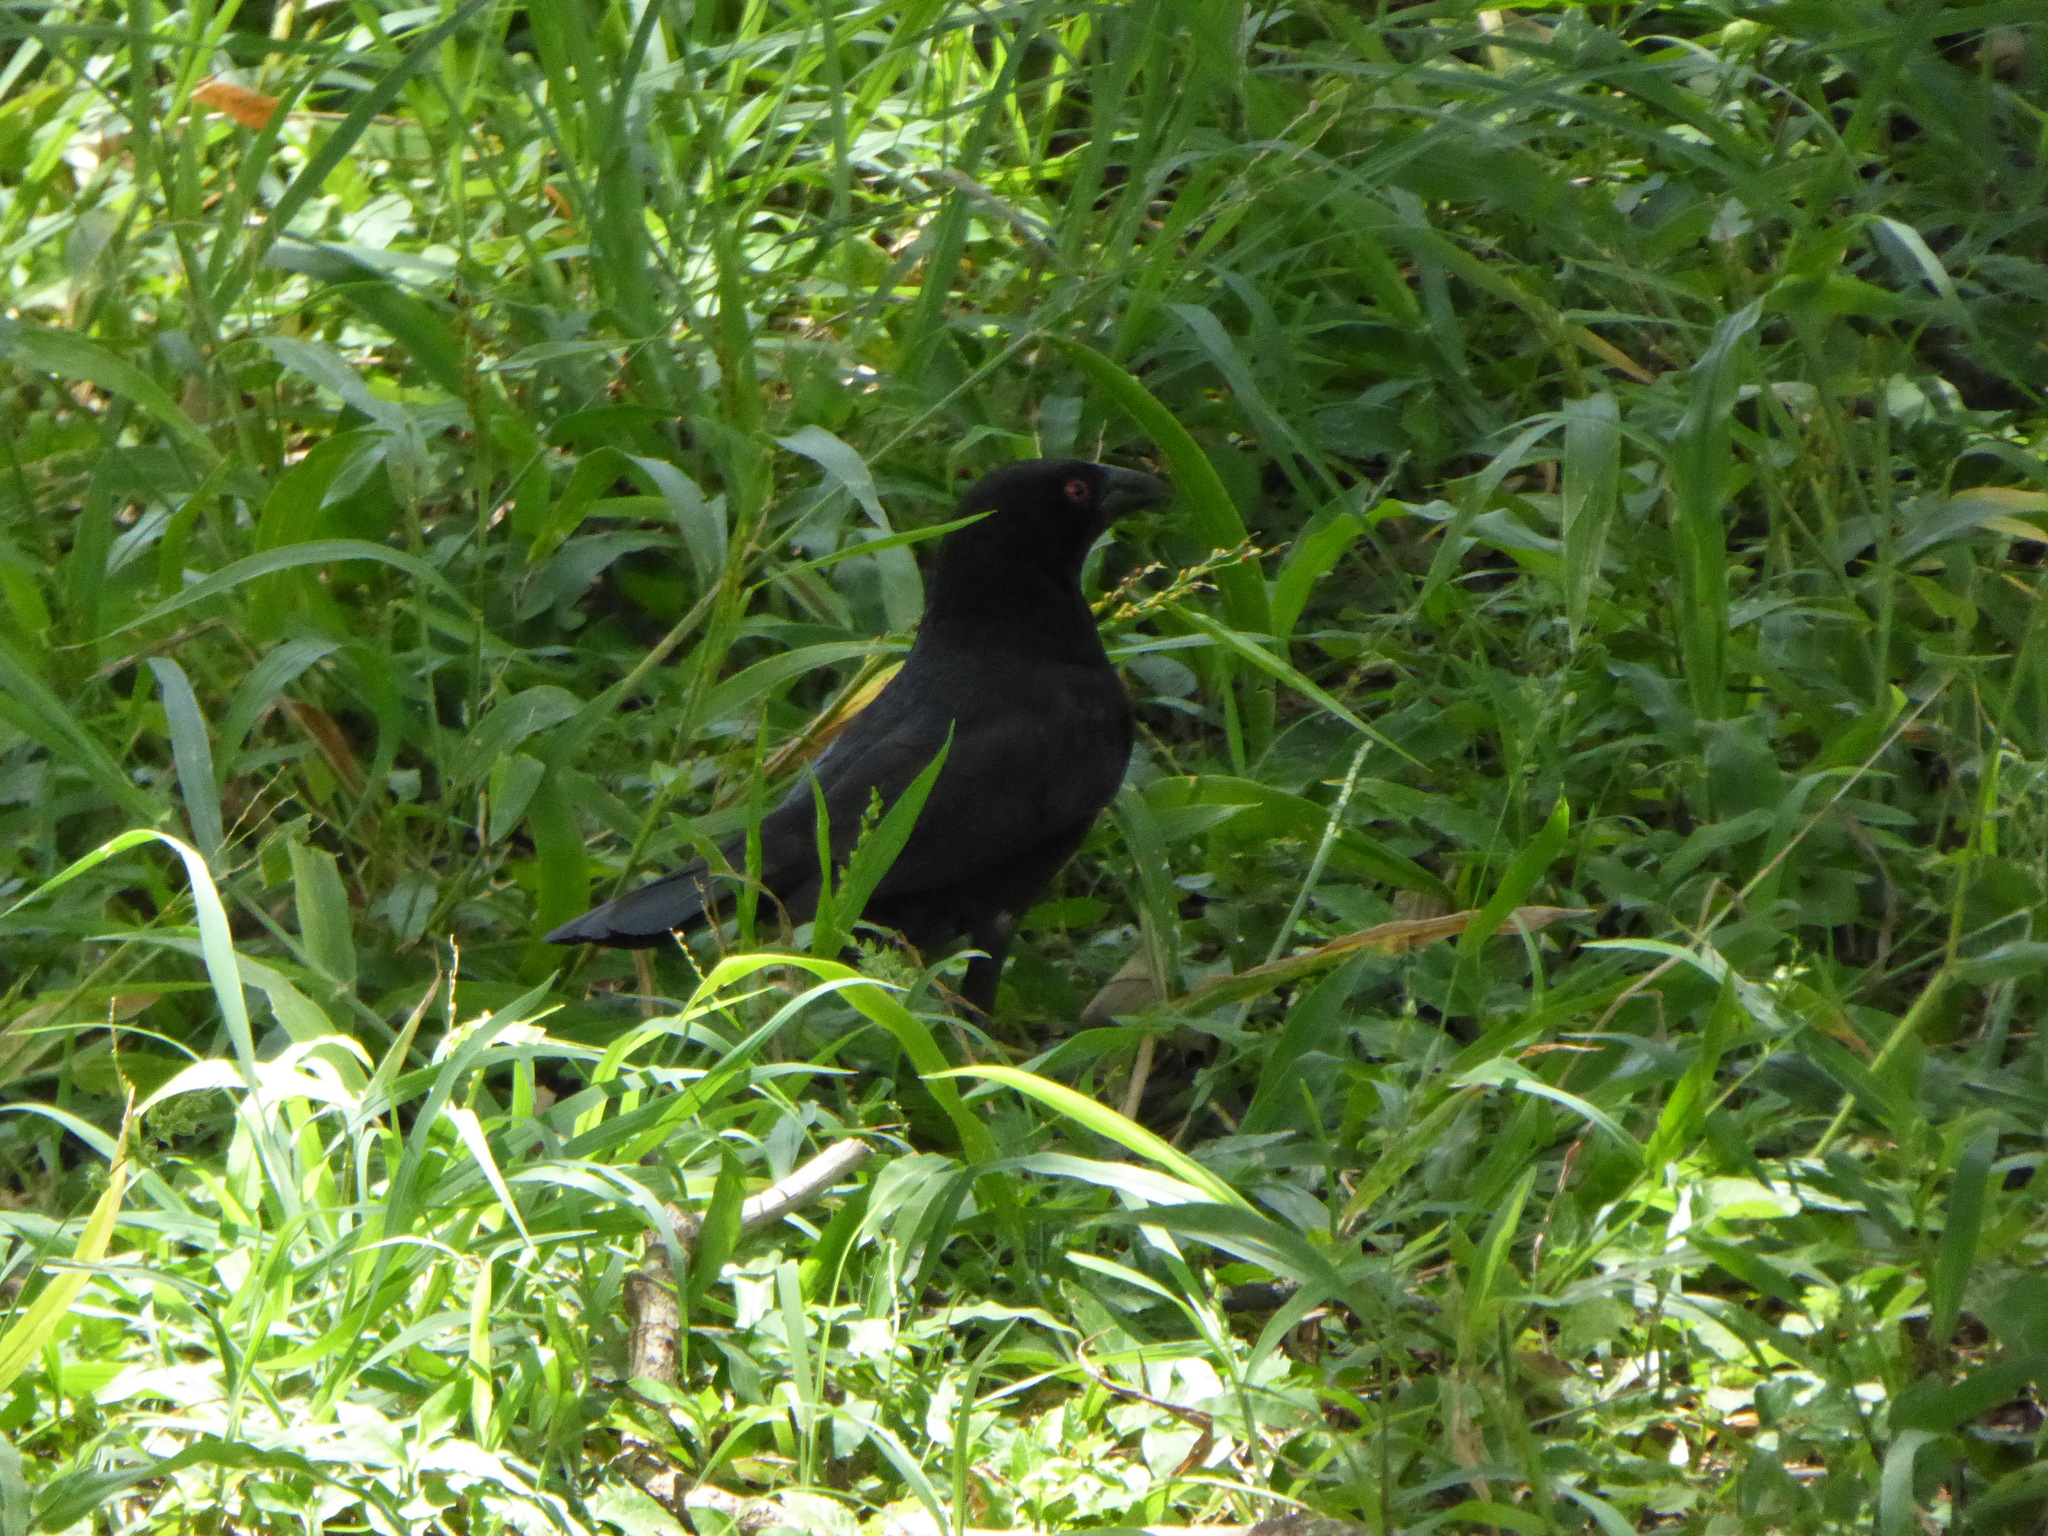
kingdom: Animalia
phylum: Chordata
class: Aves
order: Passeriformes
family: Icteridae
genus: Molothrus
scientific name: Molothrus aeneus
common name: Bronzed cowbird
